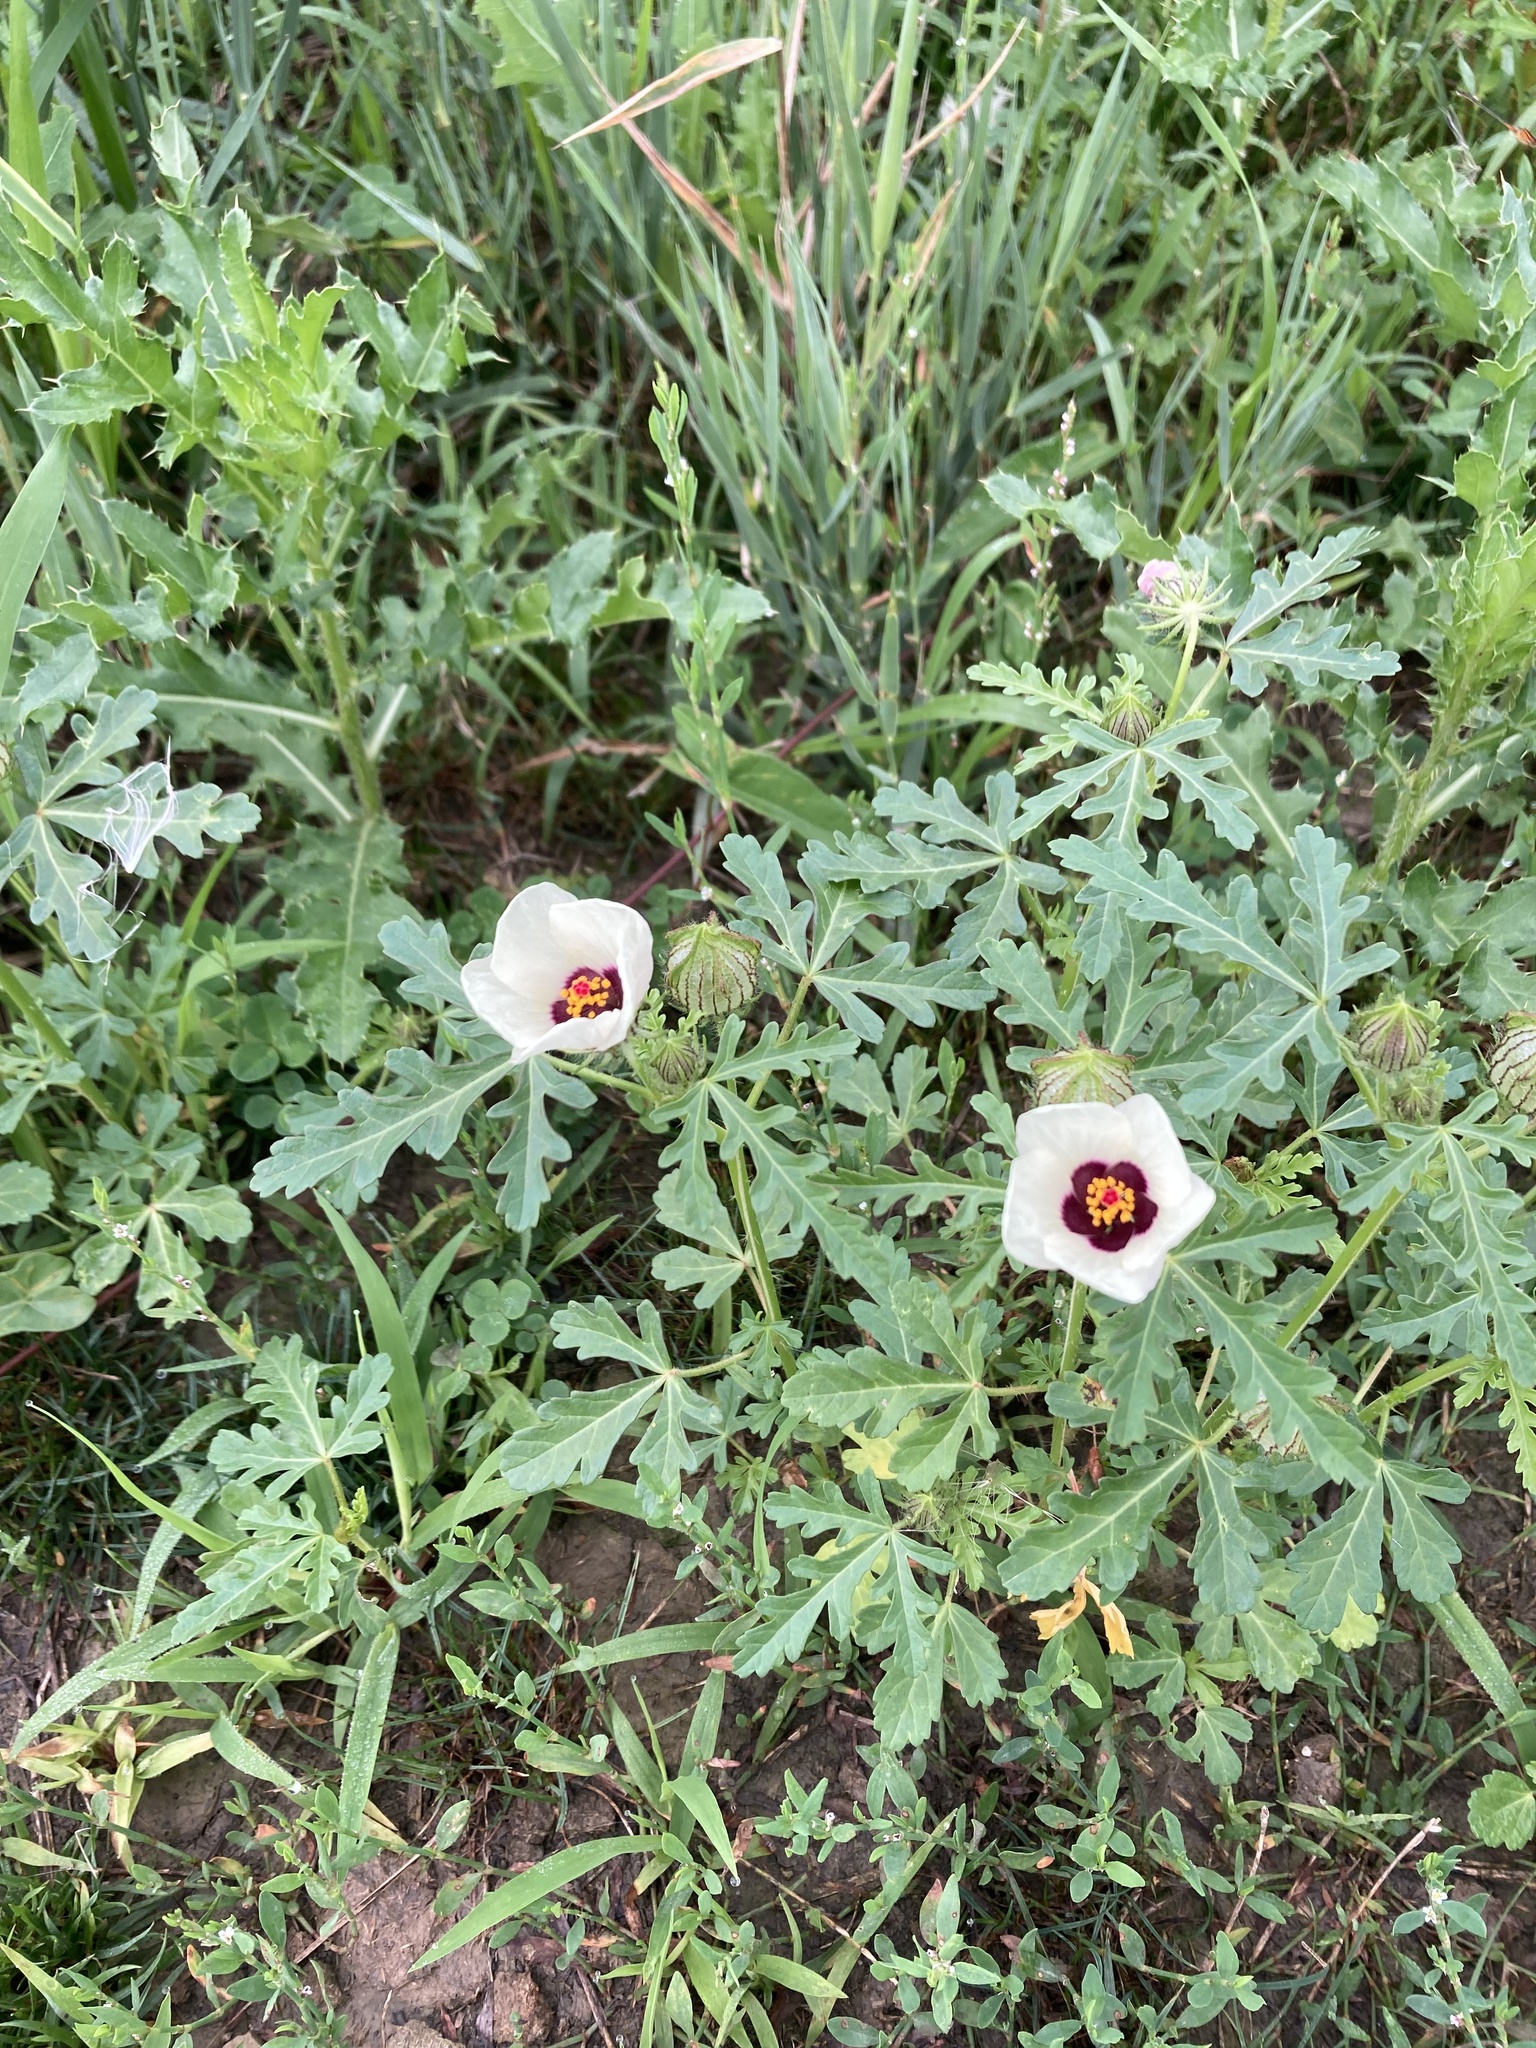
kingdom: Plantae
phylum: Tracheophyta
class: Magnoliopsida
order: Malvales
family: Malvaceae
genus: Hibiscus
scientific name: Hibiscus trionum
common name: Bladder ketmia
